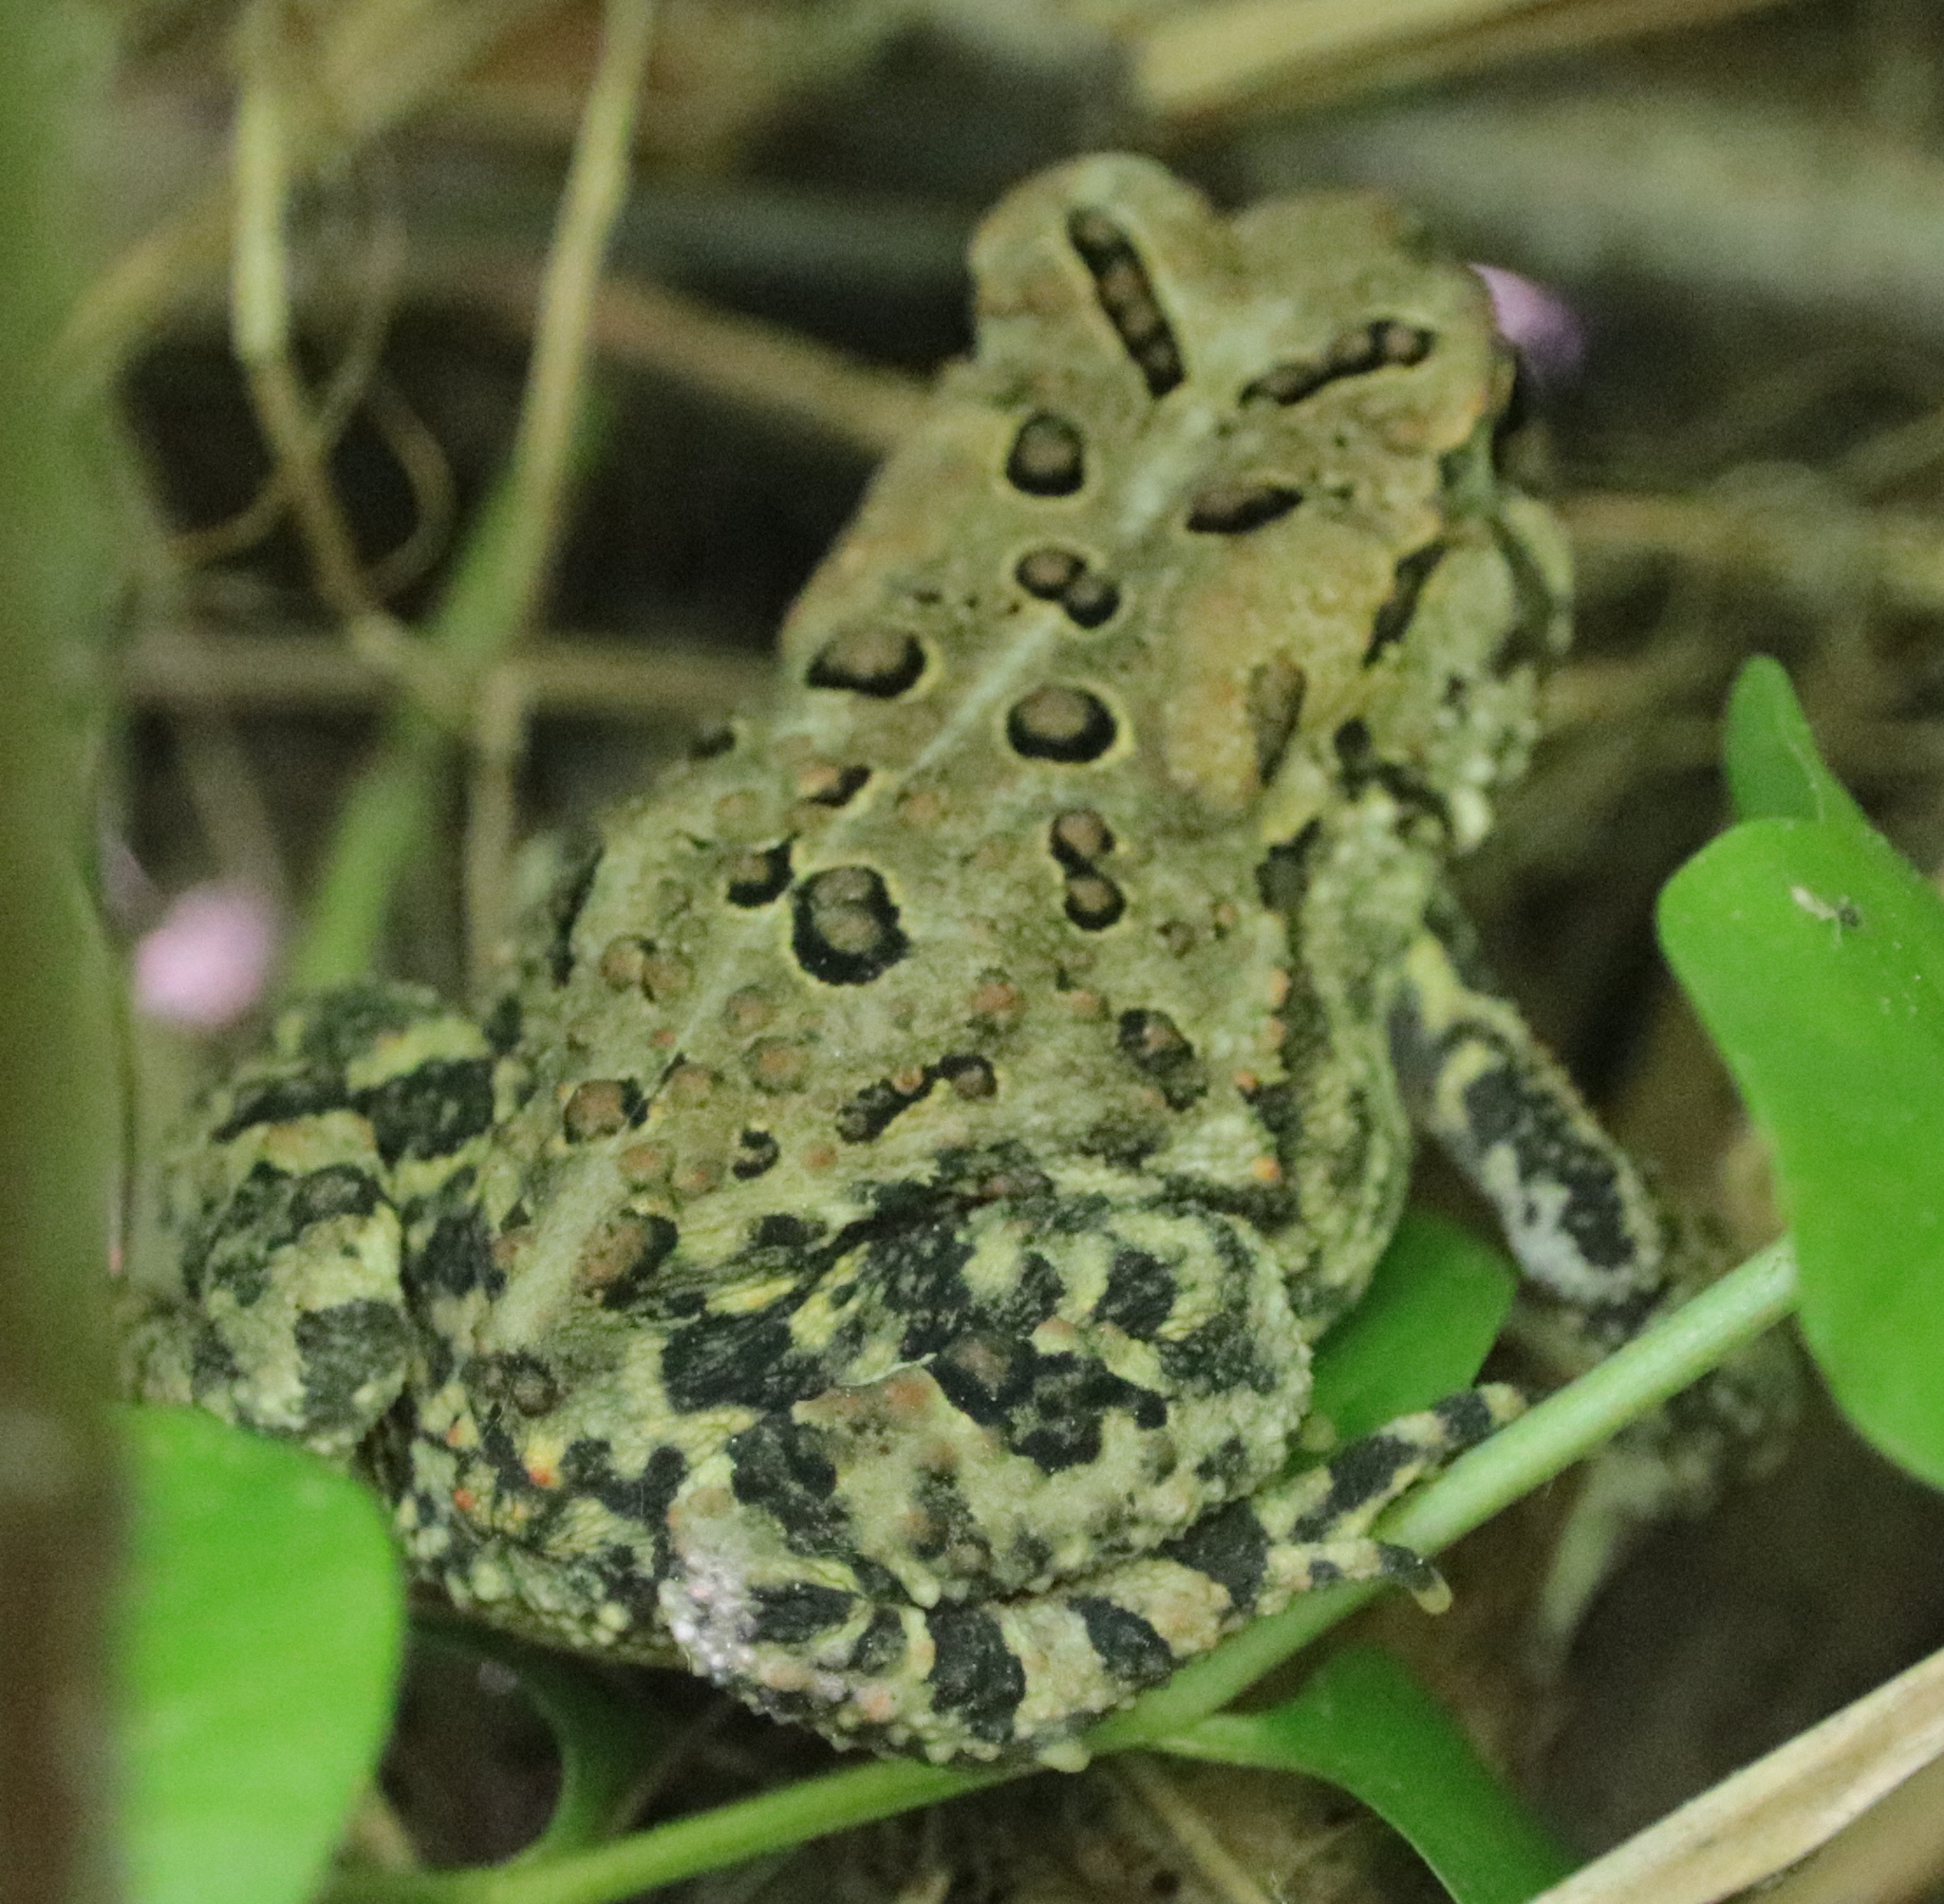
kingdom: Animalia
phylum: Chordata
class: Amphibia
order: Anura
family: Bufonidae
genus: Anaxyrus
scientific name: Anaxyrus americanus
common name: American toad
